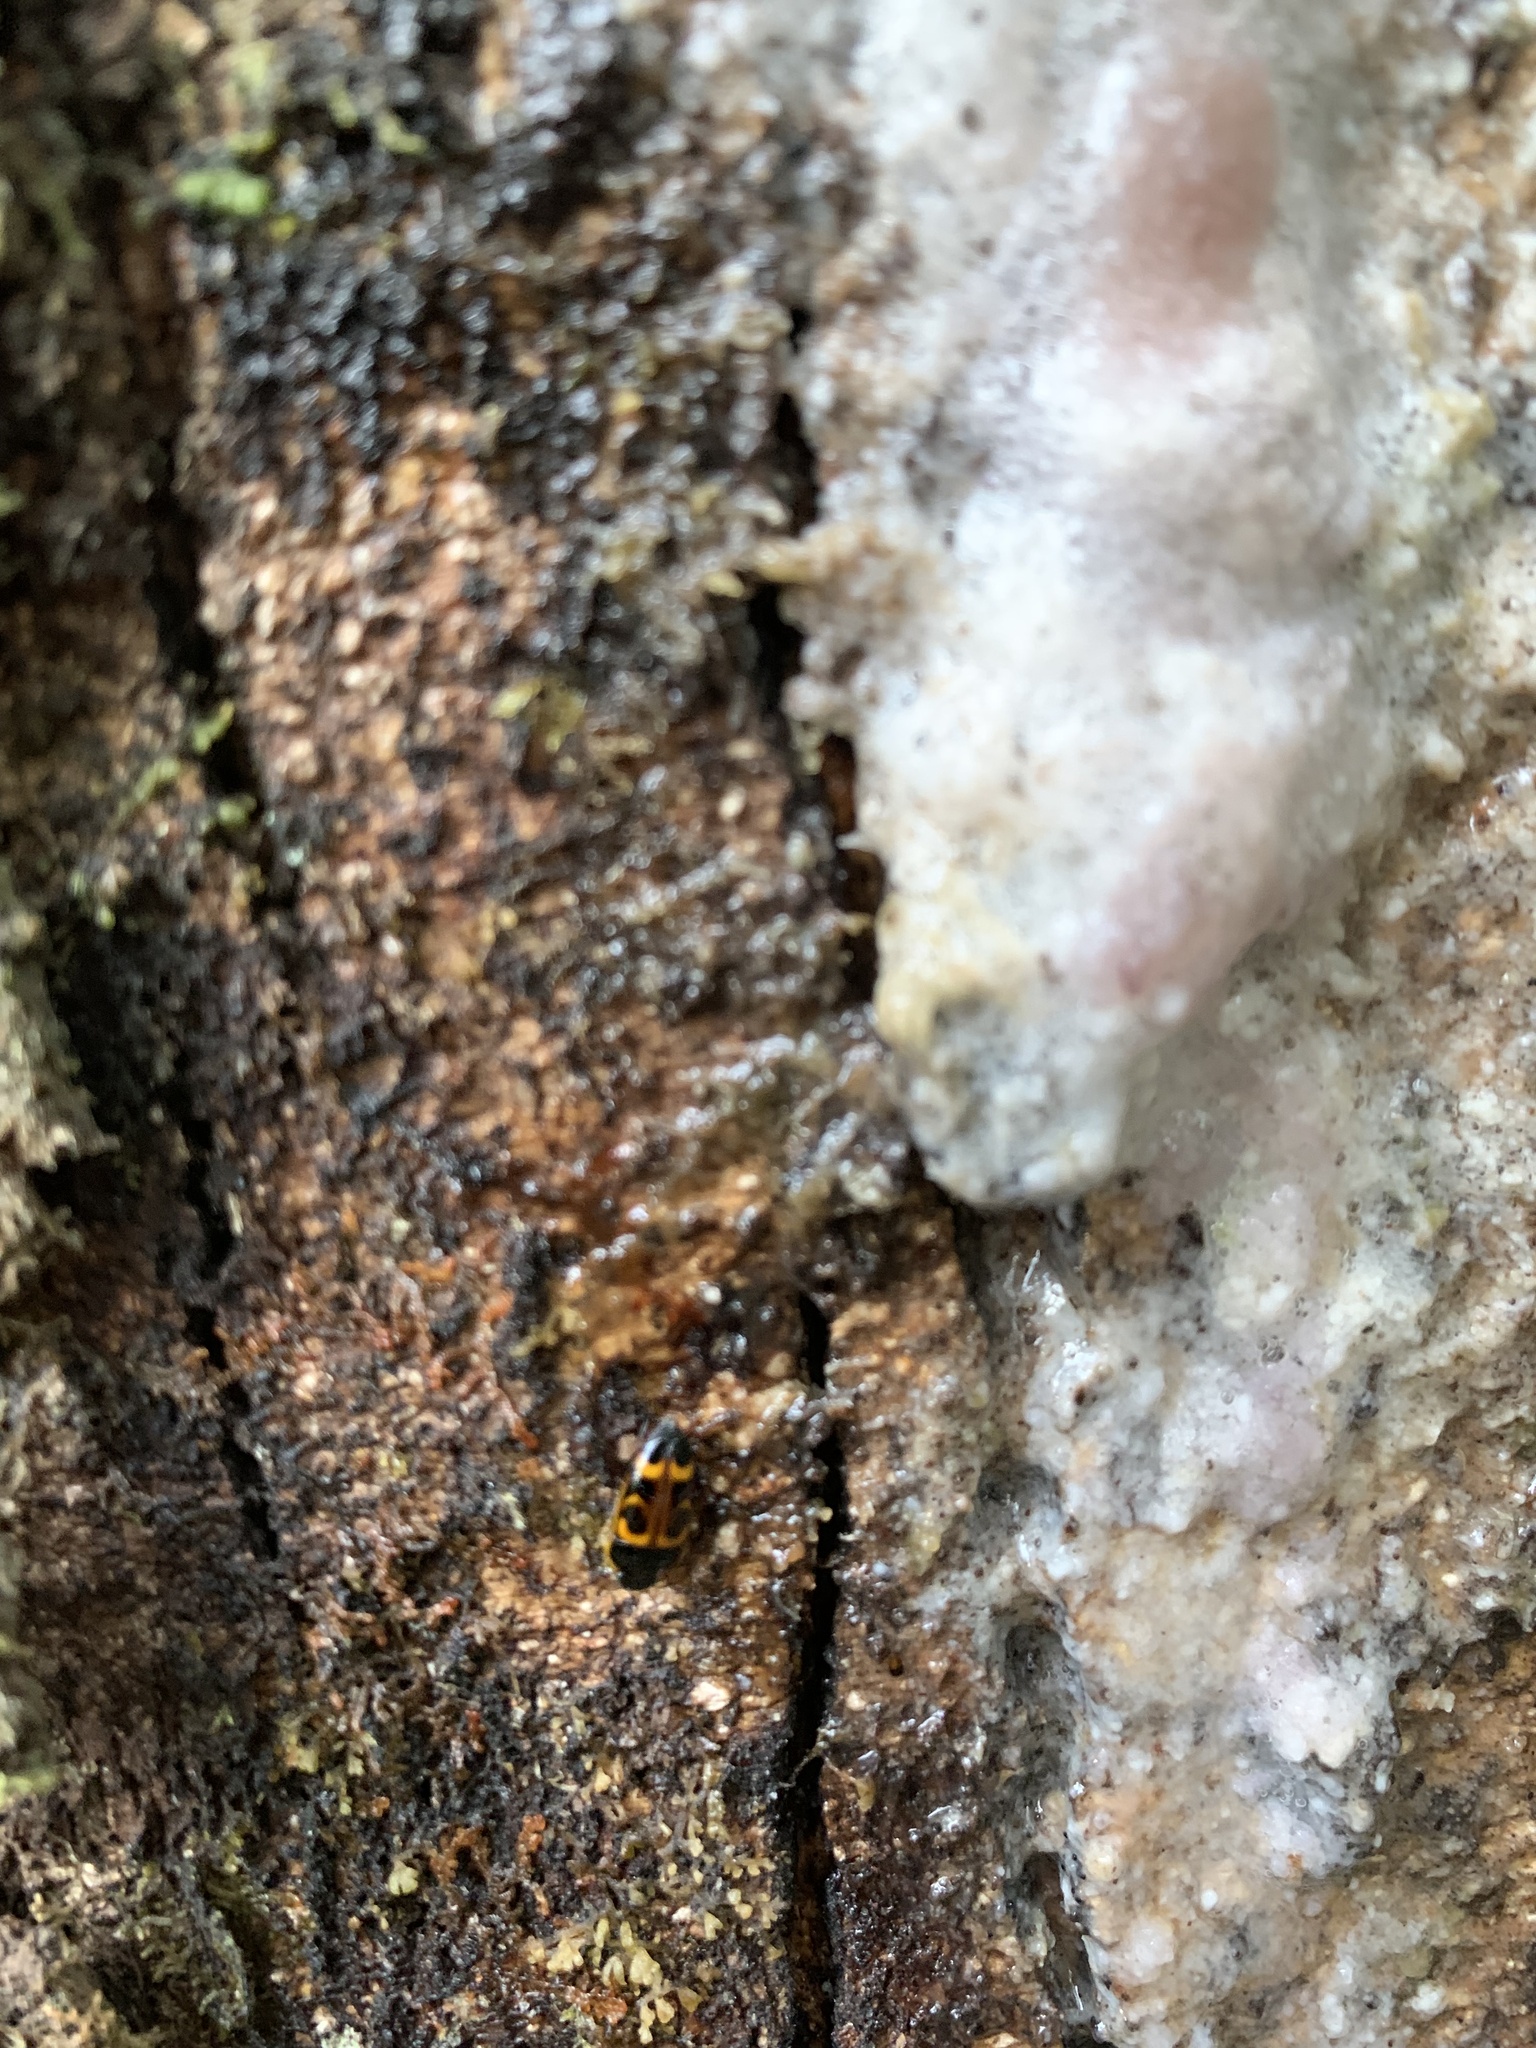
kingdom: Animalia
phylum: Arthropoda
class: Insecta
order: Coleoptera
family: Nitidulidae
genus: Lioschema
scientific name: Lioschema
